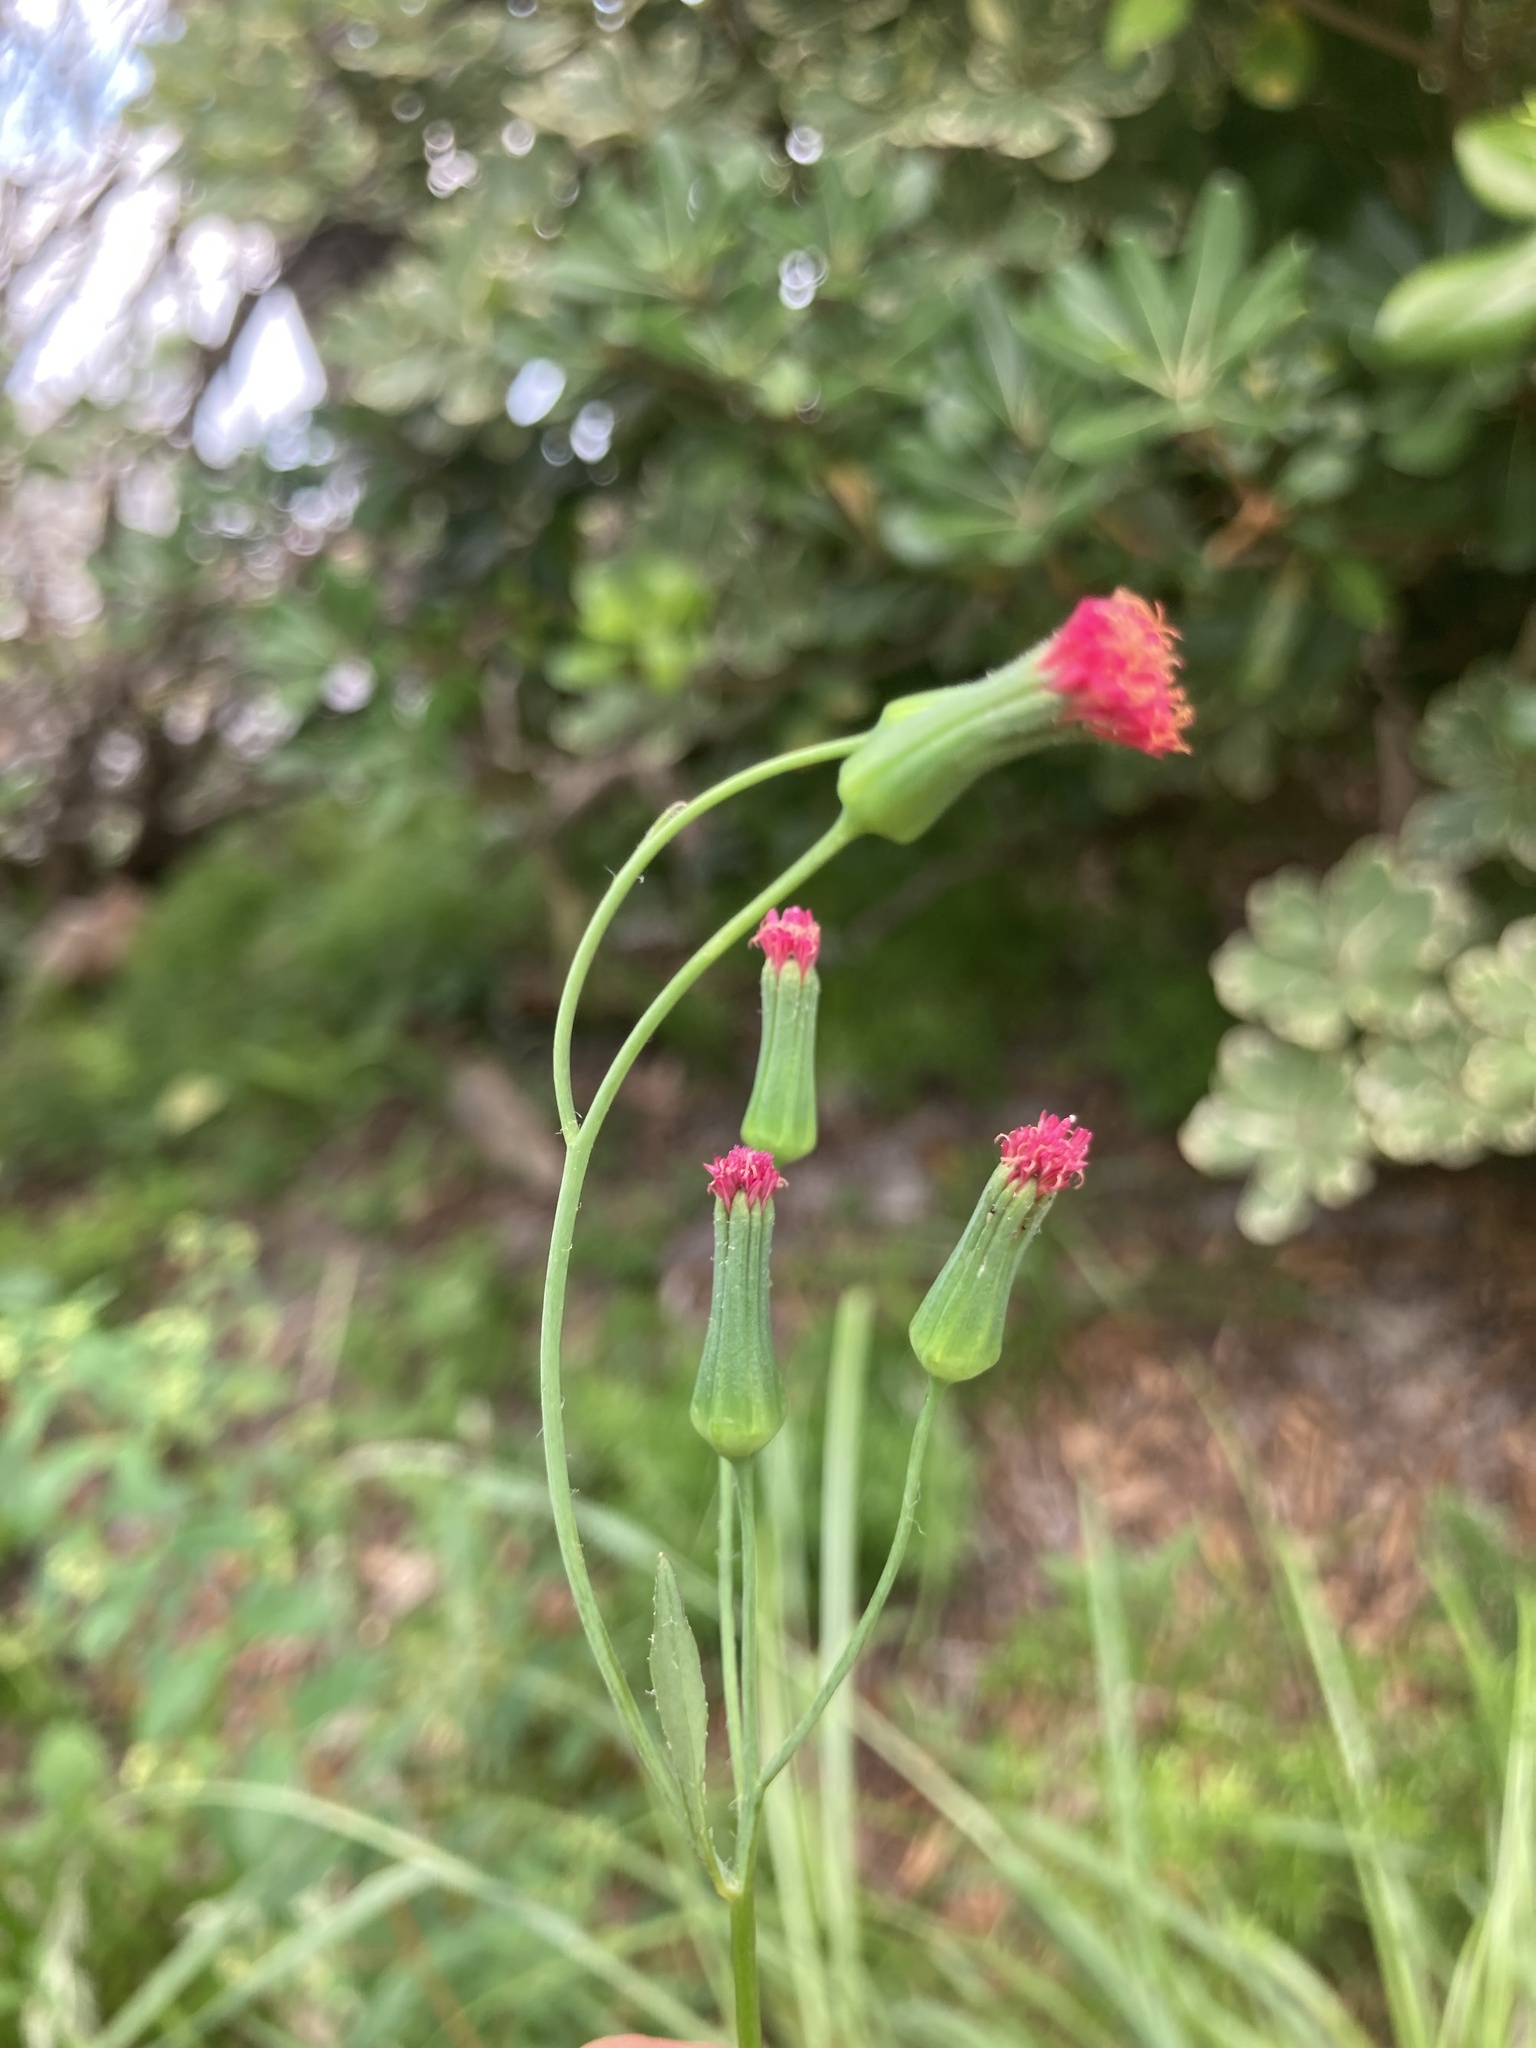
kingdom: Plantae
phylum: Tracheophyta
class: Magnoliopsida
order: Asterales
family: Asteraceae
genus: Emilia
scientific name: Emilia fosbergii
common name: Florida tasselflower
